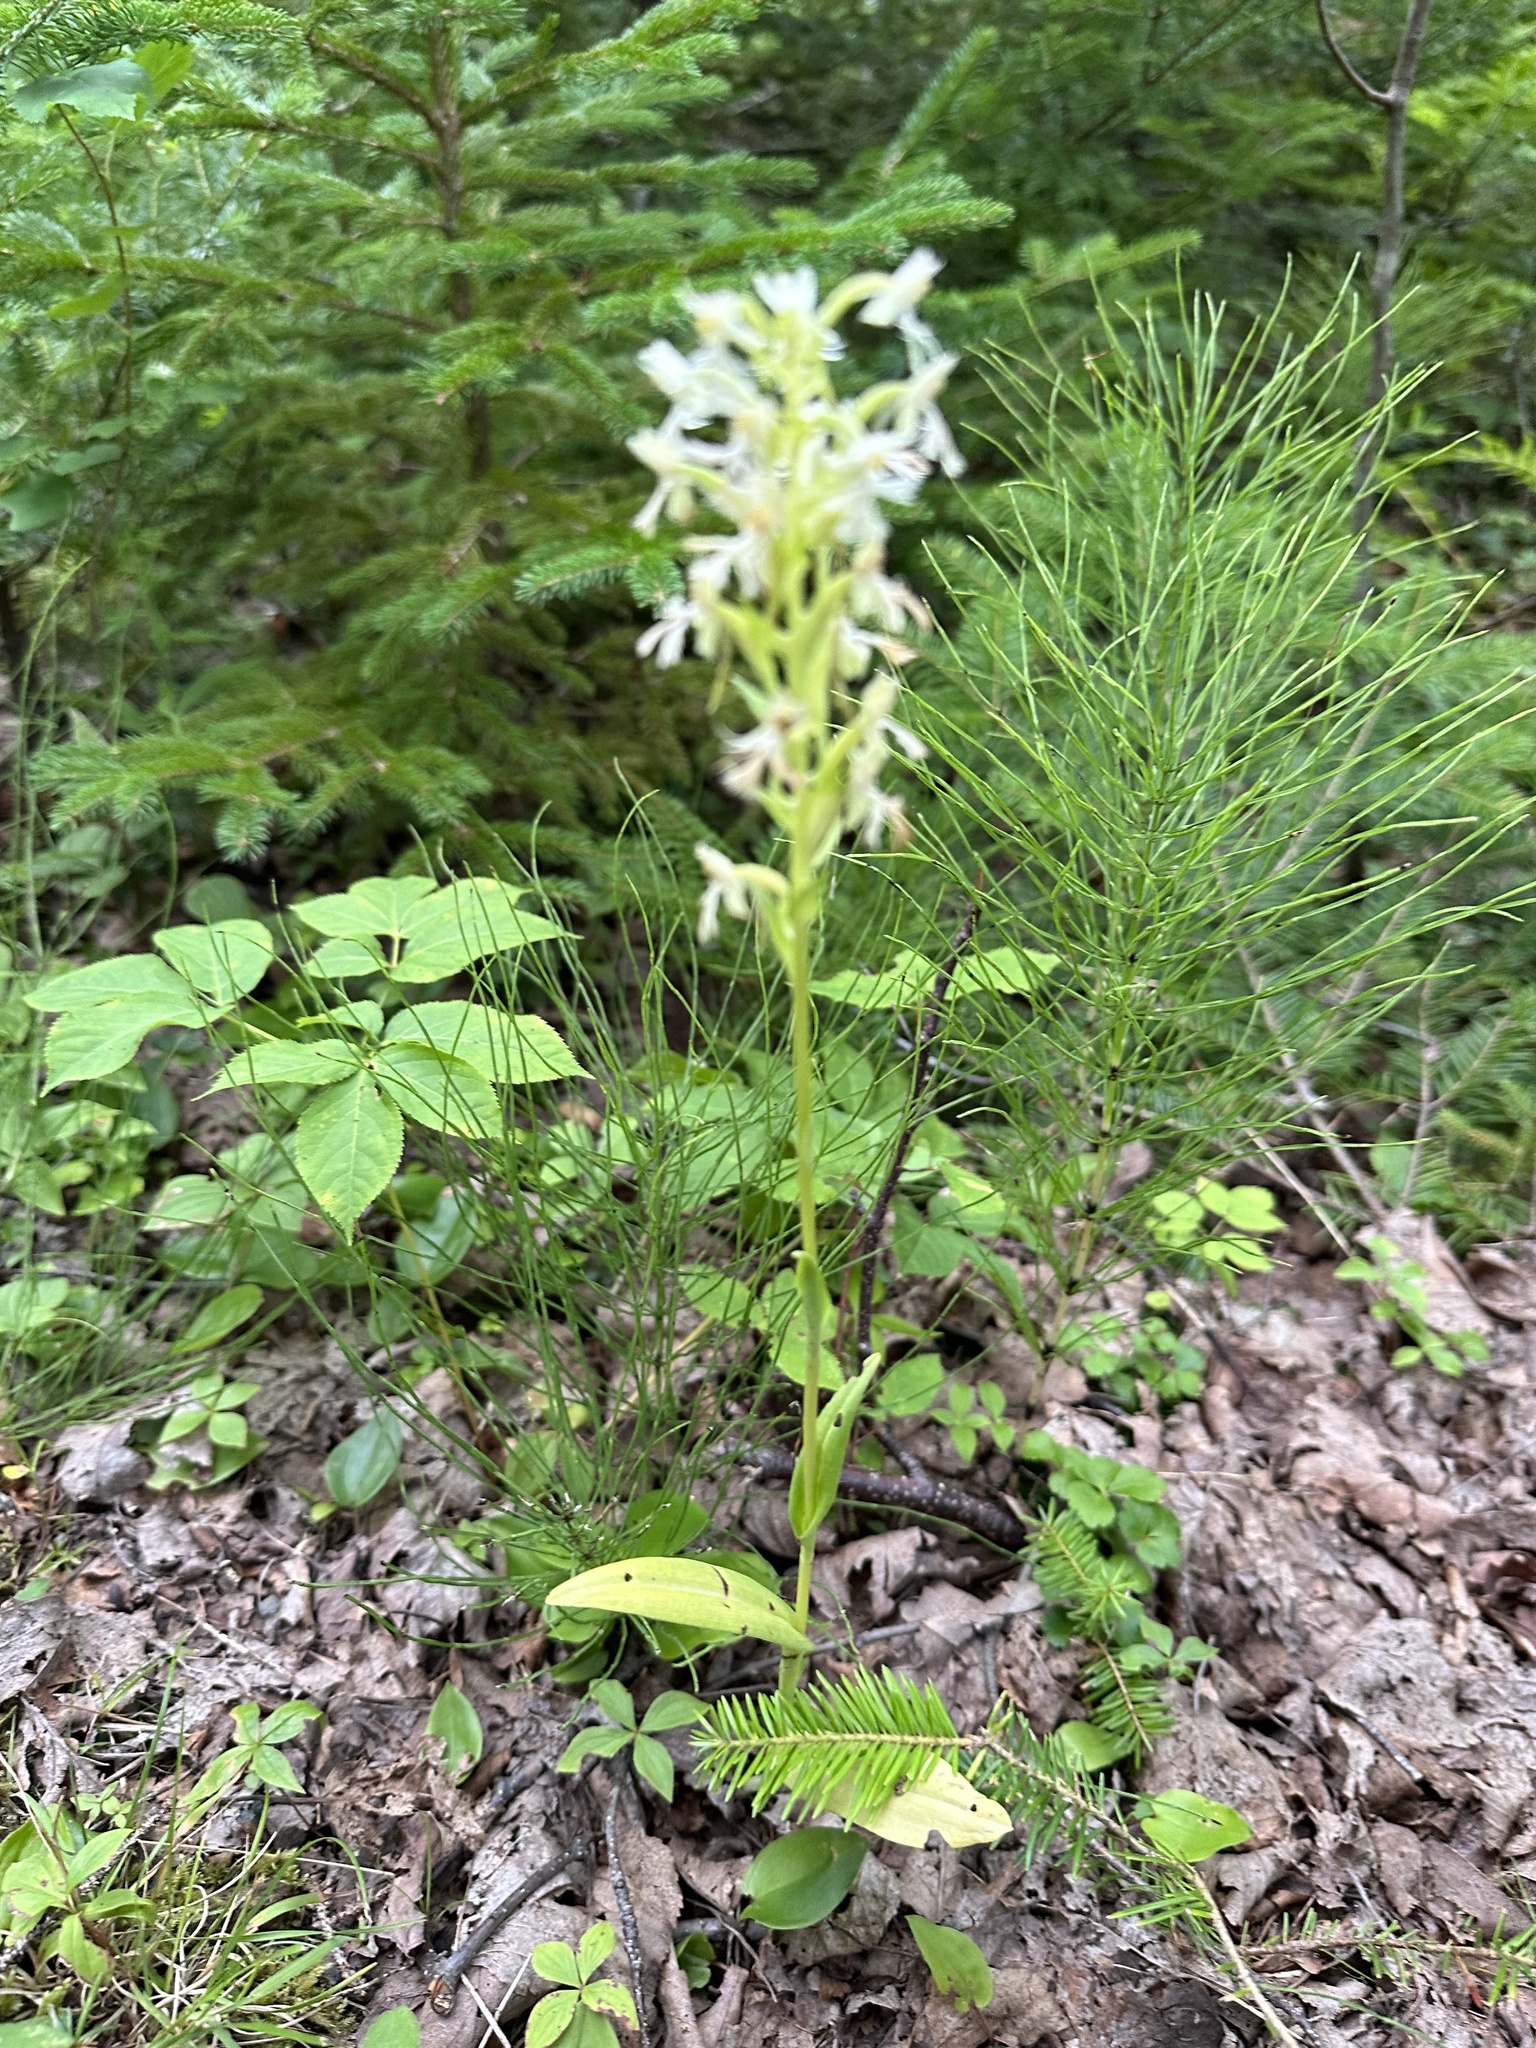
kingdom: Plantae
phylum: Tracheophyta
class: Liliopsida
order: Asparagales
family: Orchidaceae
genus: Platanthera
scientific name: Platanthera lacera
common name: Green fringed orchid
